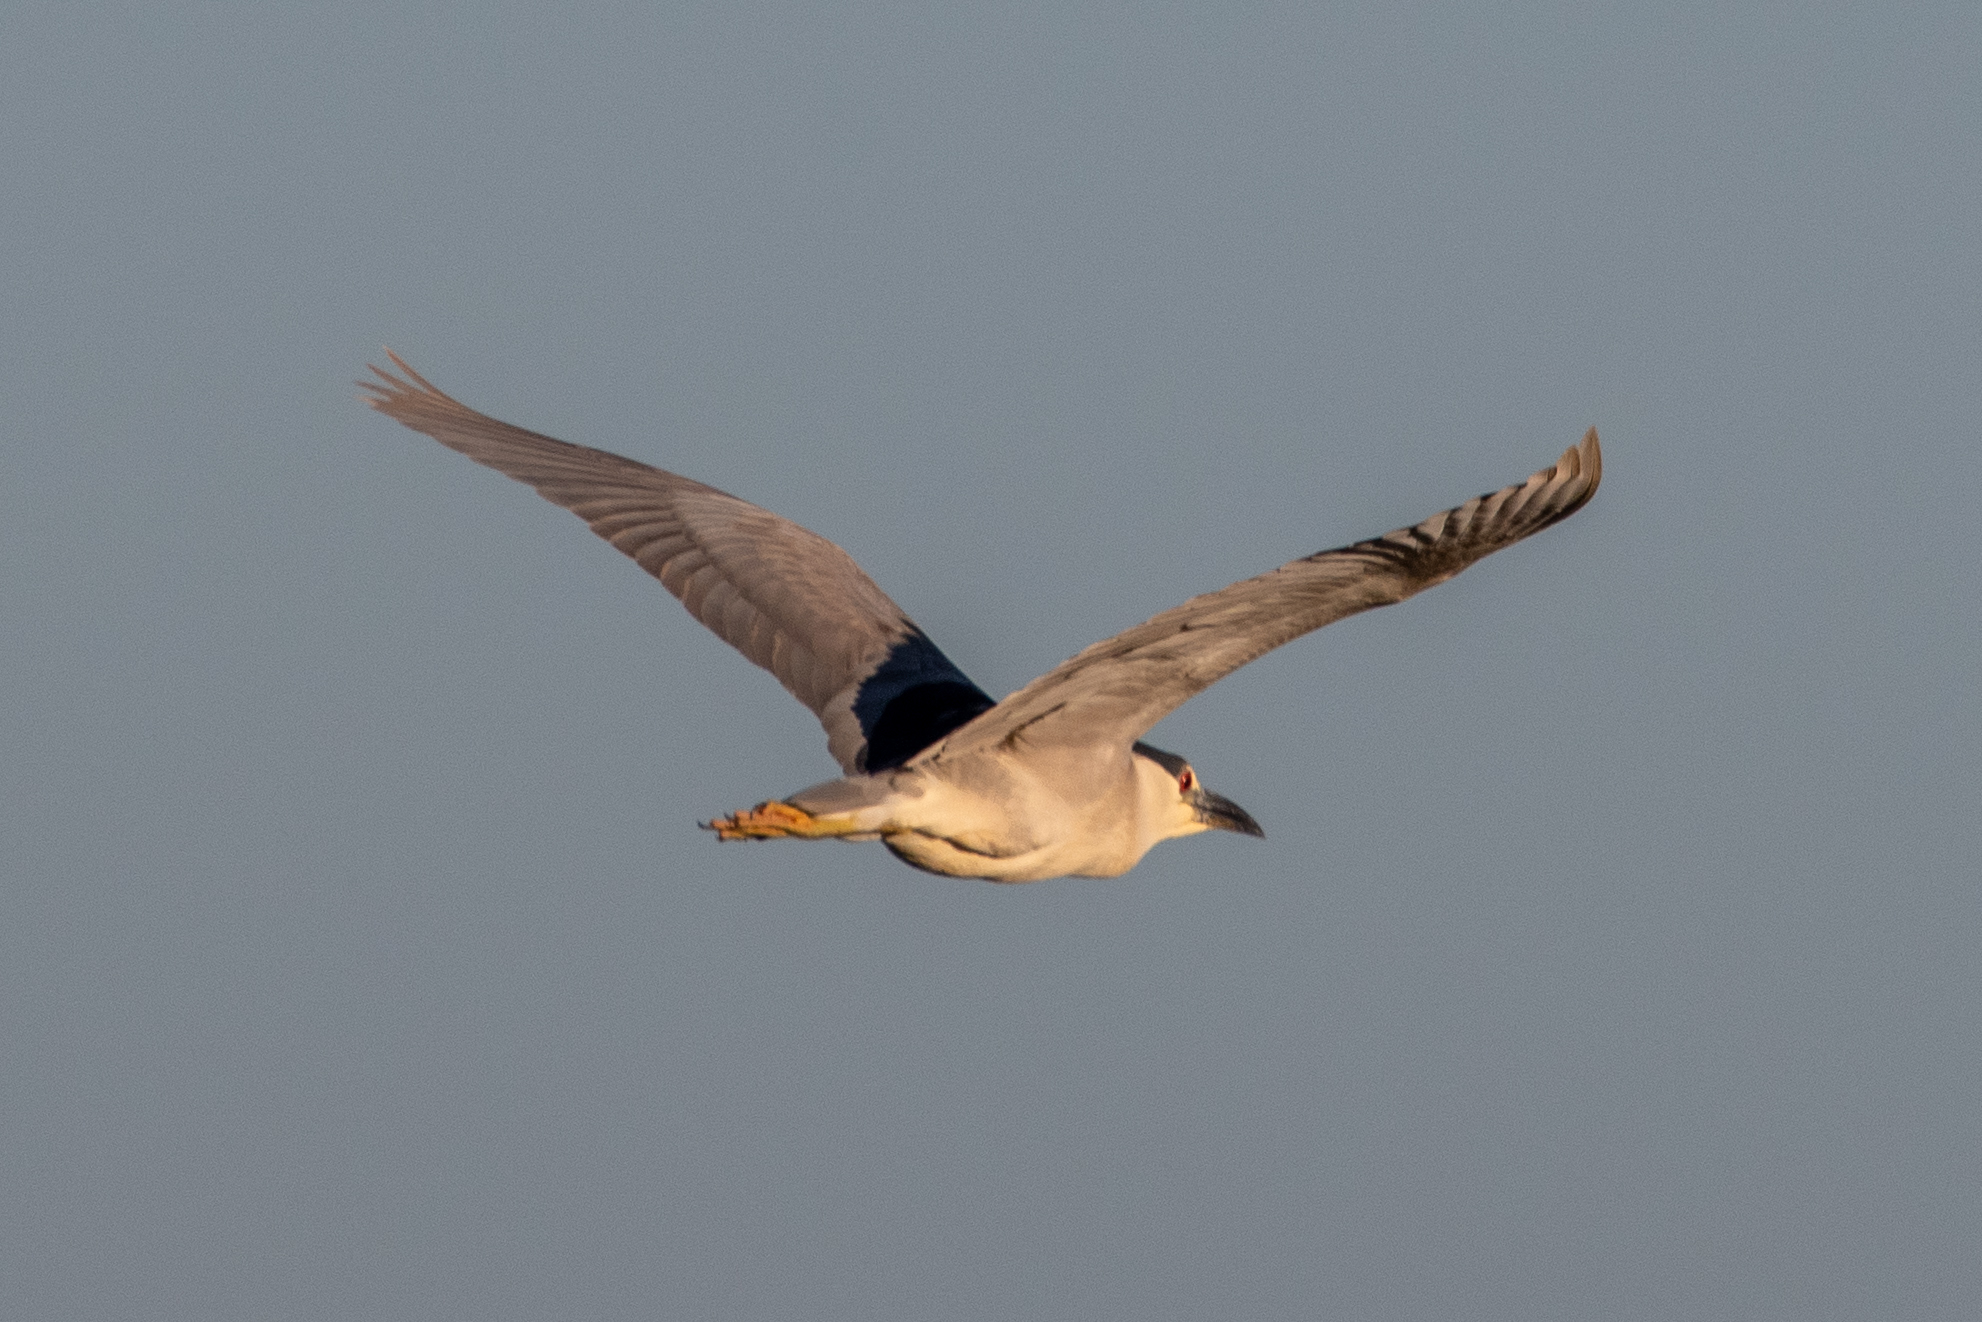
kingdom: Animalia
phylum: Chordata
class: Aves
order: Pelecaniformes
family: Ardeidae
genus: Nycticorax
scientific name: Nycticorax nycticorax
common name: Black-crowned night heron
